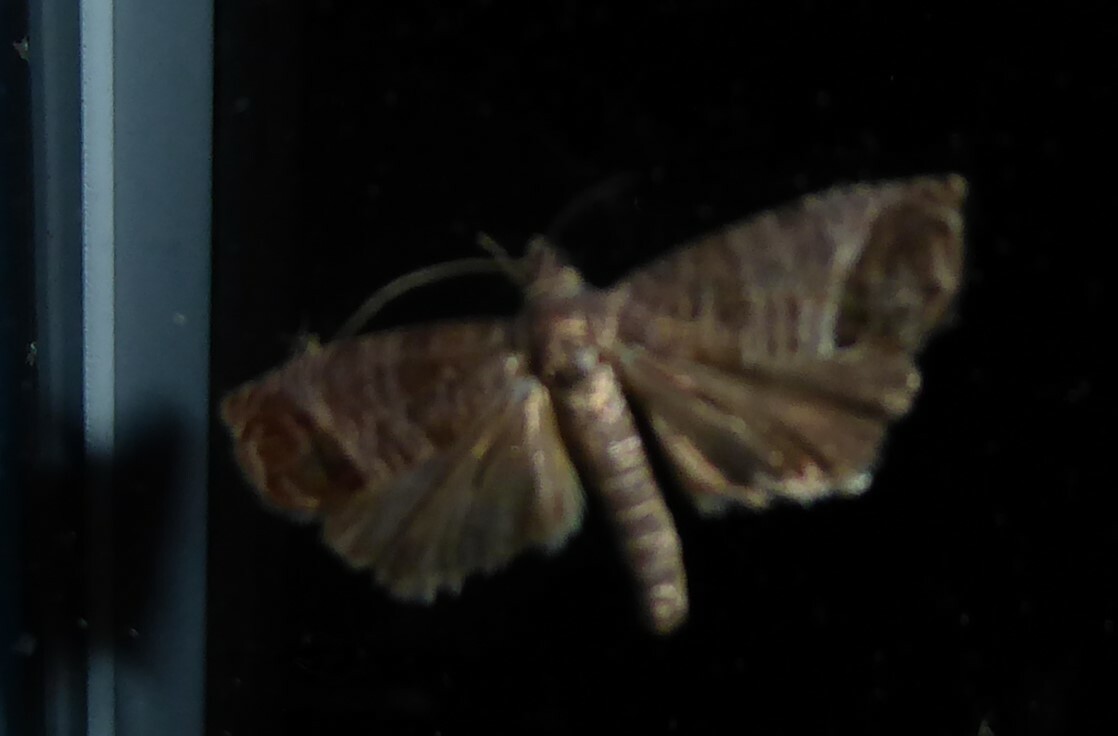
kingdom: Animalia
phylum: Arthropoda
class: Insecta
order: Lepidoptera
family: Tortricidae
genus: Cydia
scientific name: Cydia pomonella
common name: Codling moth
